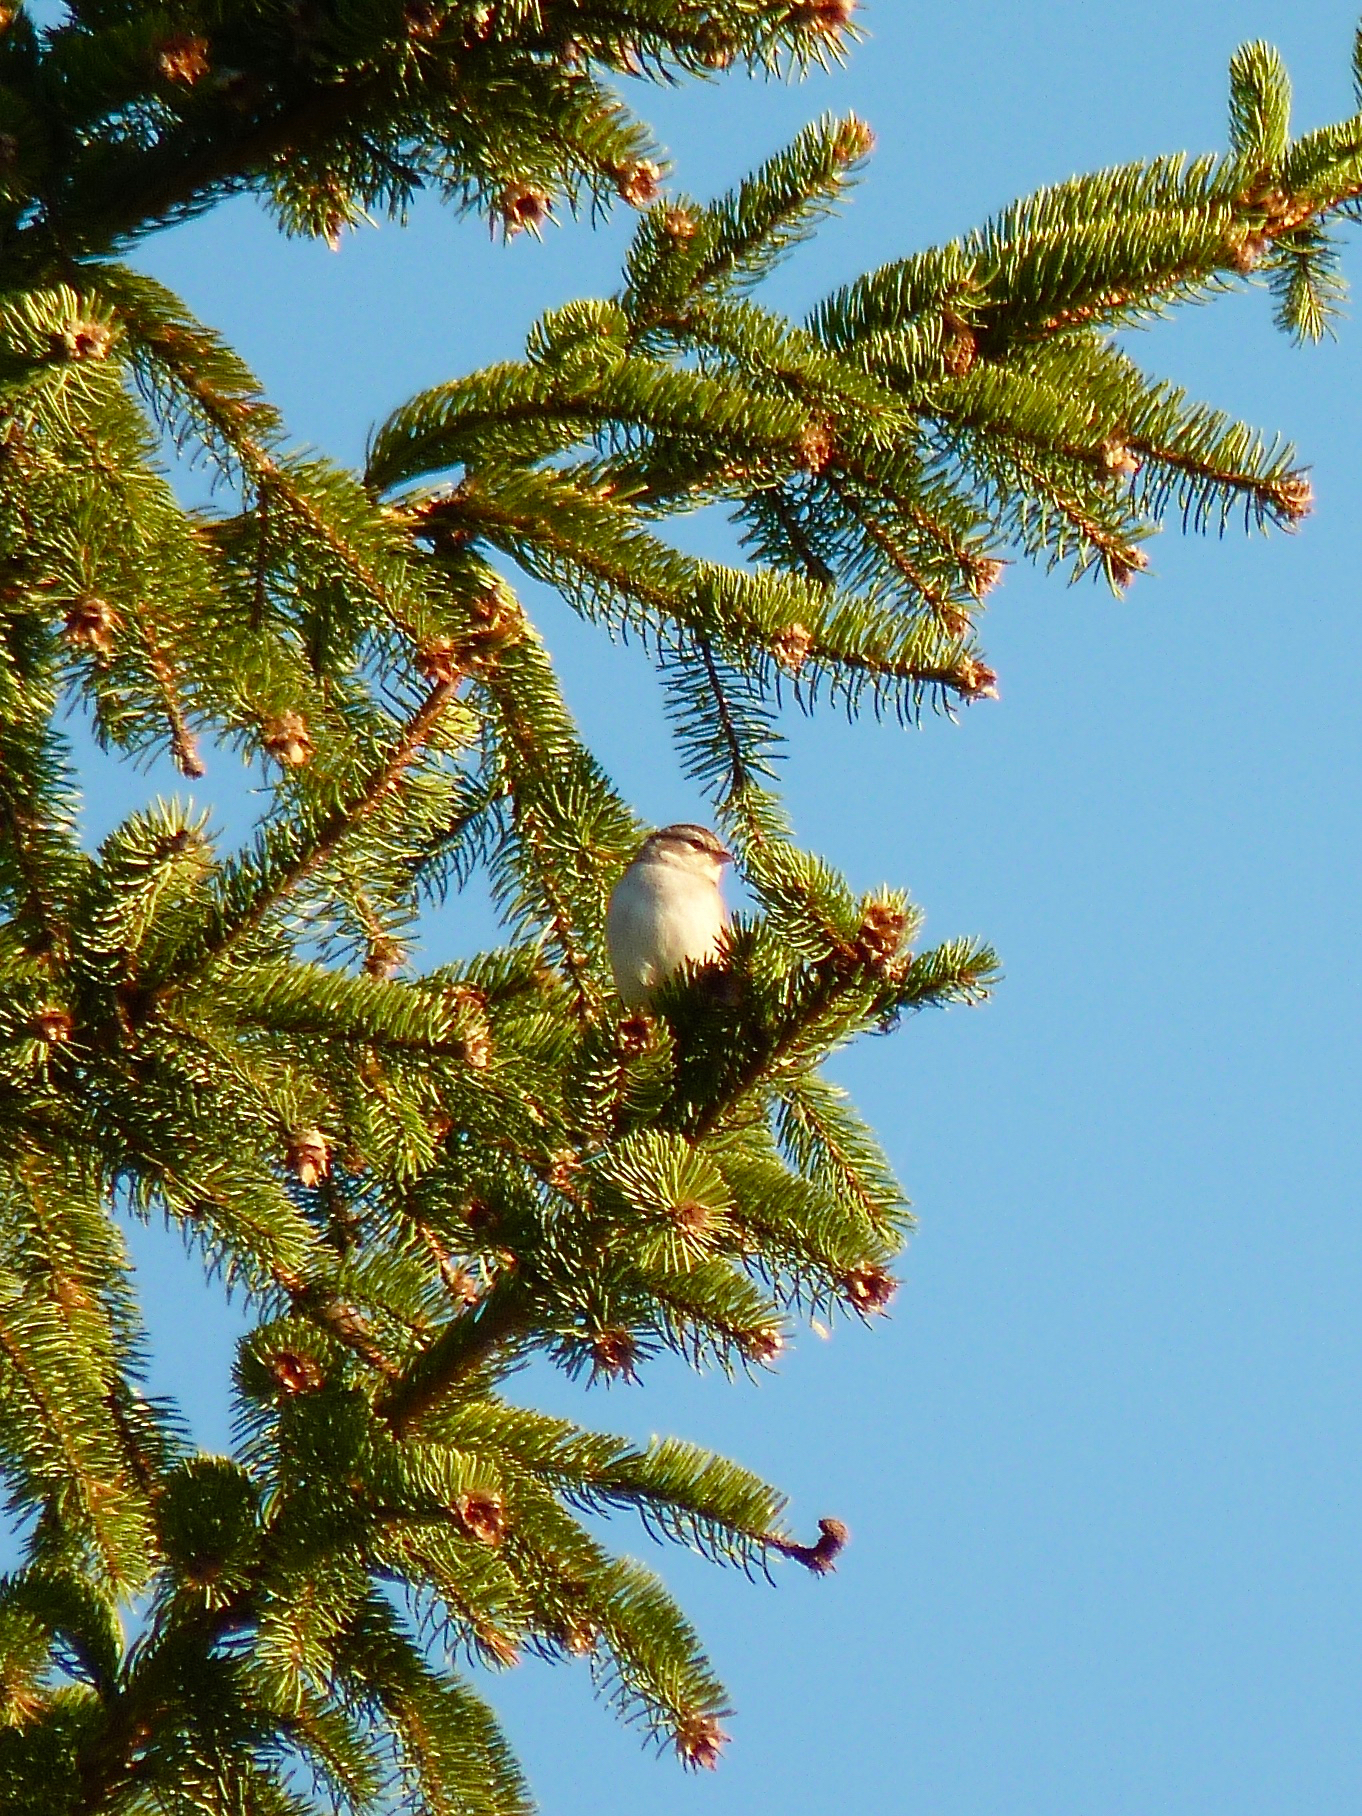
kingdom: Animalia
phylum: Chordata
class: Aves
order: Passeriformes
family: Passerellidae
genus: Spizella
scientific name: Spizella passerina
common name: Chipping sparrow
